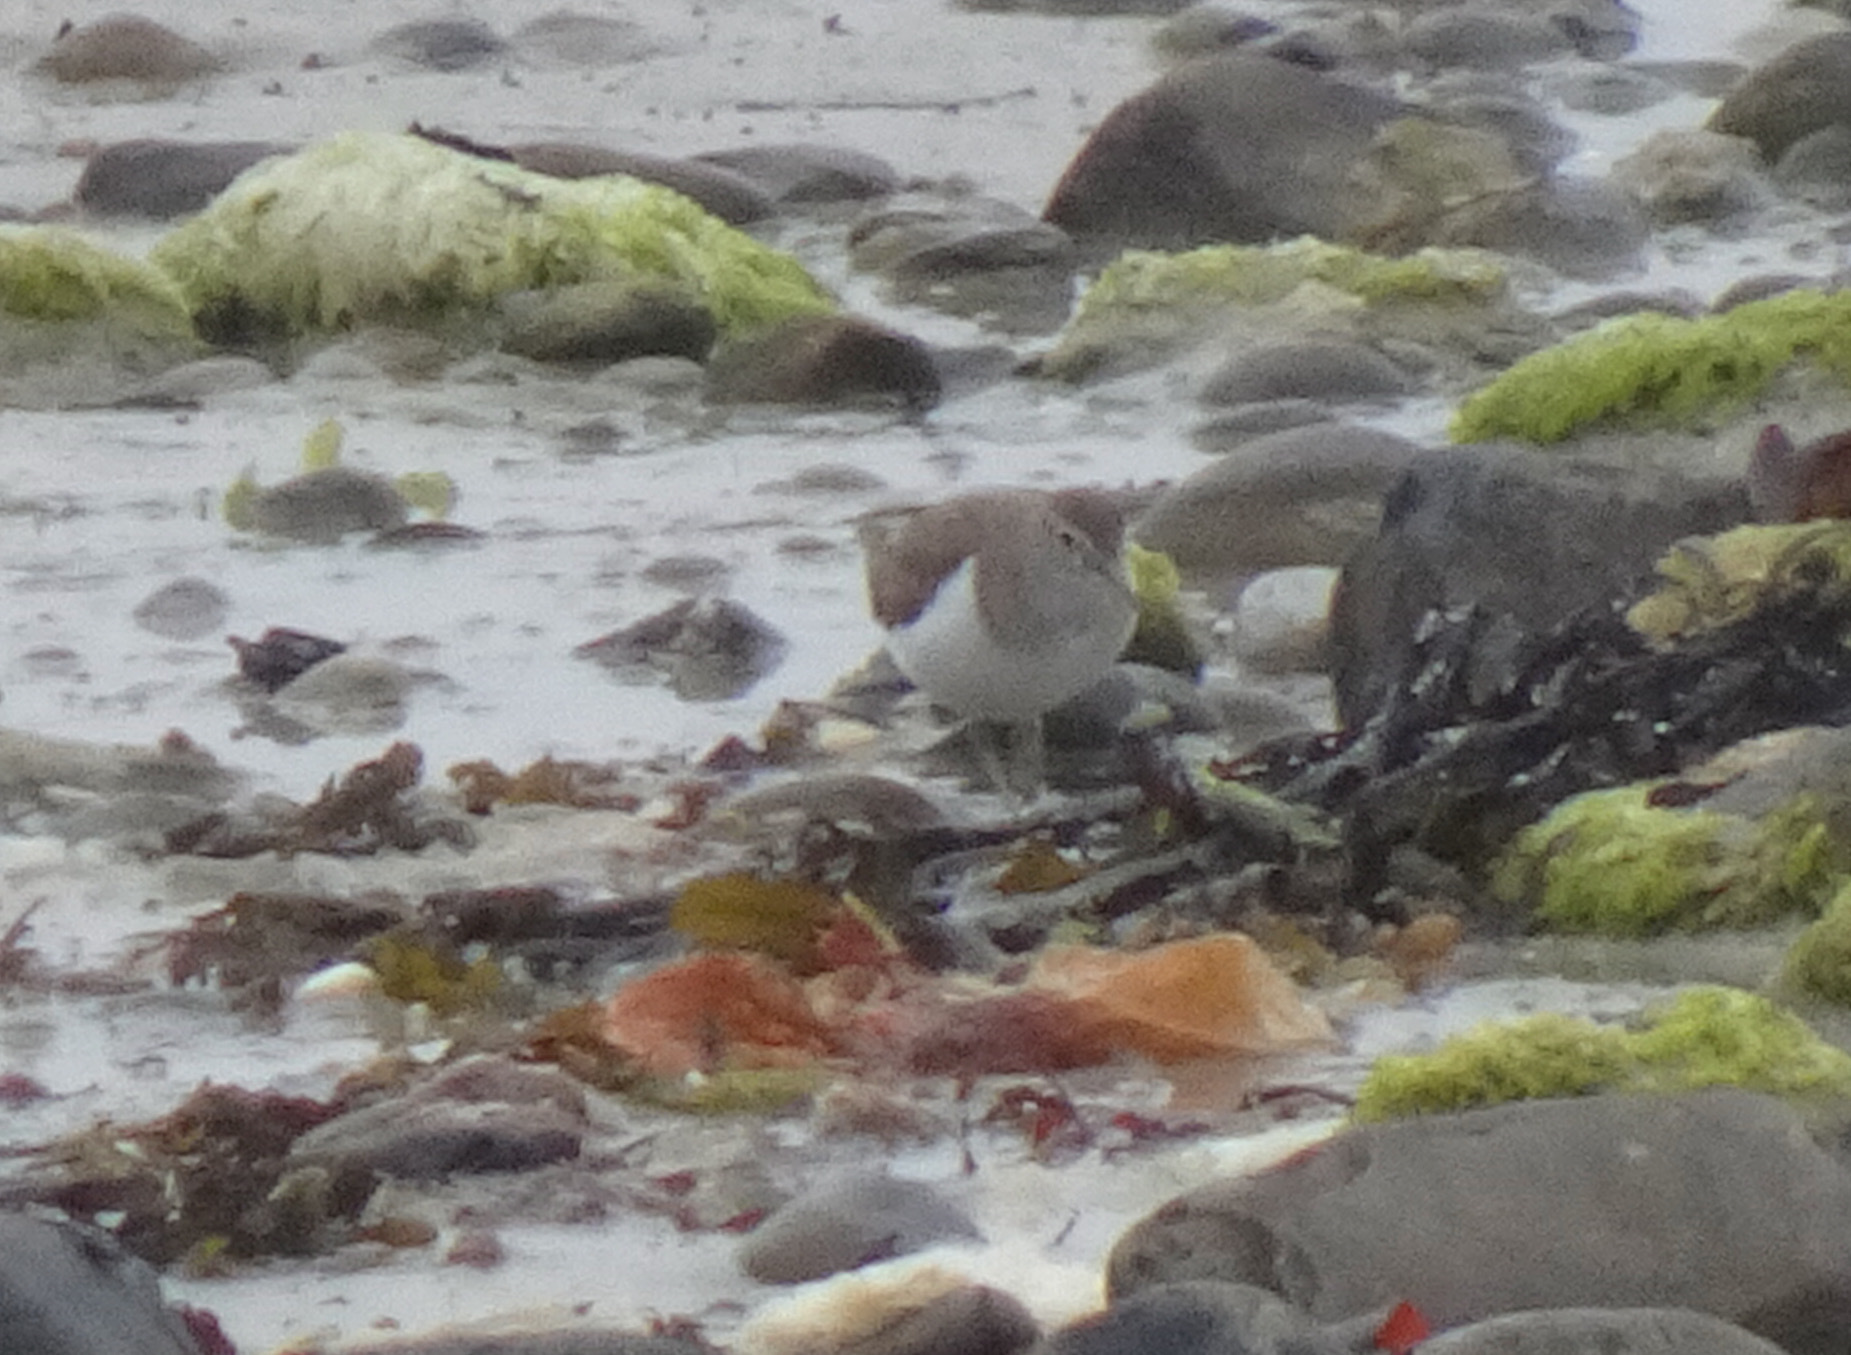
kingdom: Animalia
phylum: Chordata
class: Aves
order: Charadriiformes
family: Scolopacidae
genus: Actitis
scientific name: Actitis hypoleucos
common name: Common sandpiper
